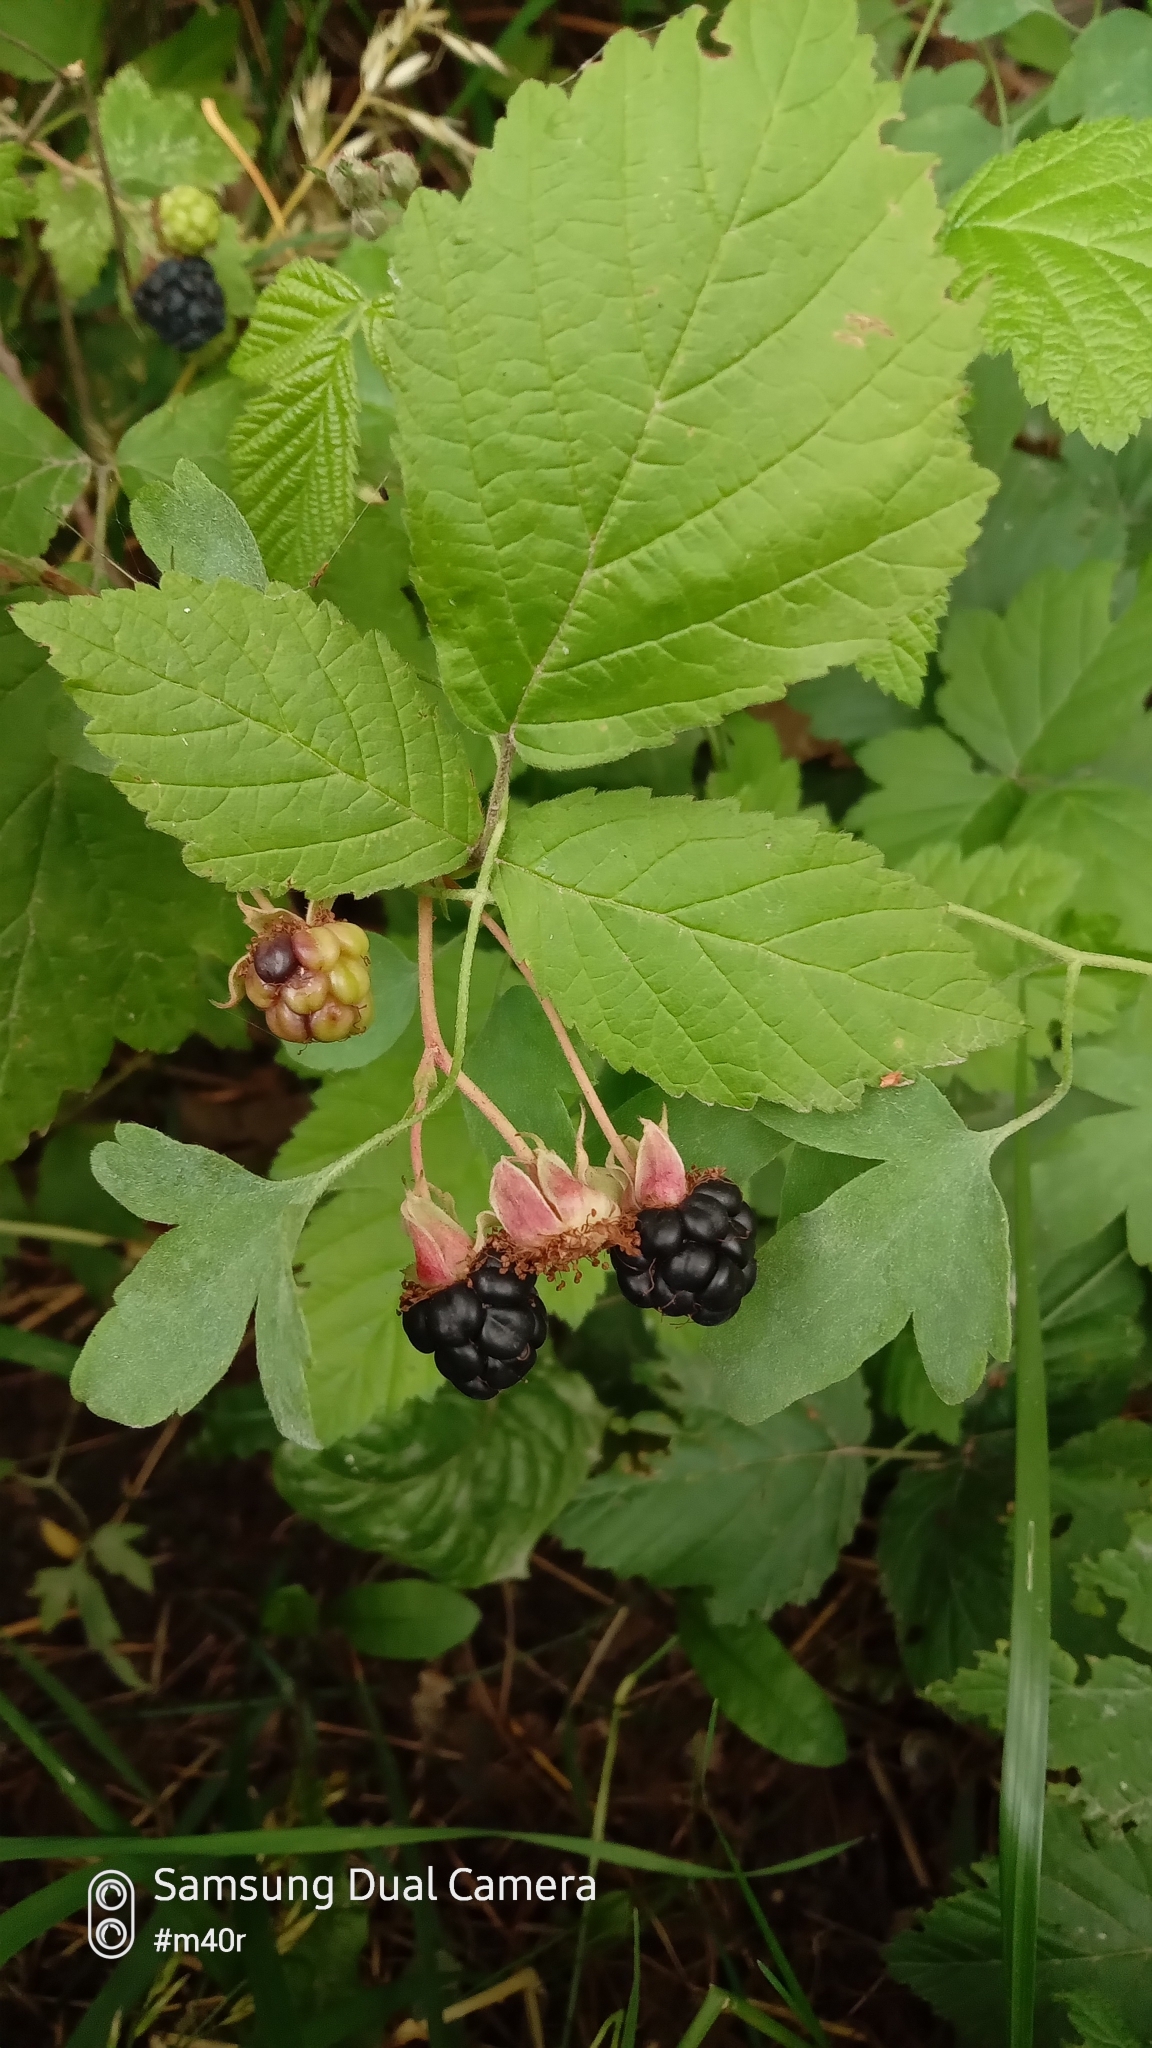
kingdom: Plantae
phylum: Tracheophyta
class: Magnoliopsida
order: Rosales
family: Rosaceae
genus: Rubus
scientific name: Rubus caesius
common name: Dewberry
